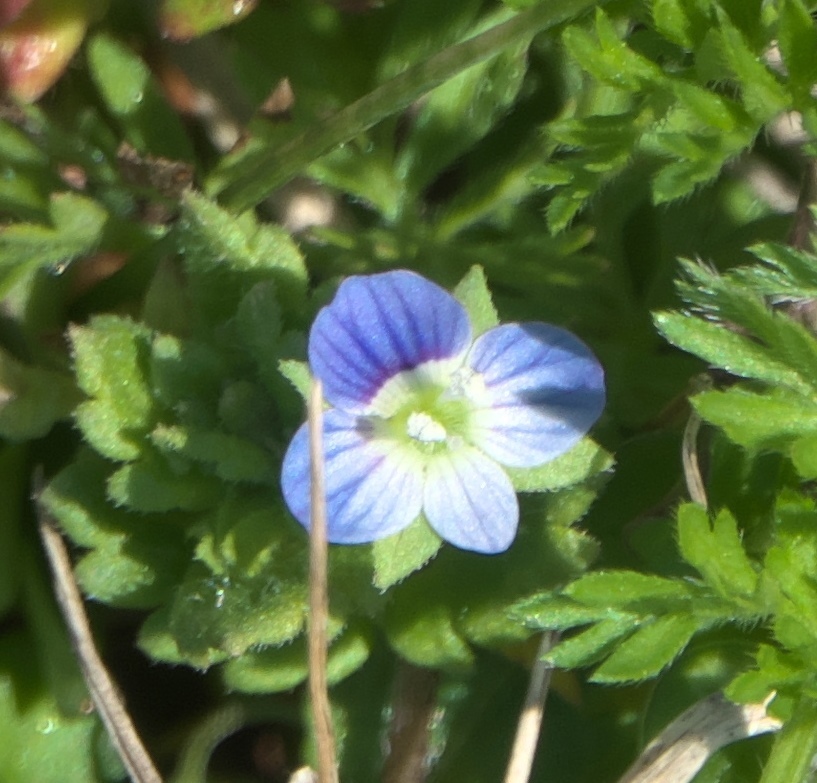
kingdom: Plantae
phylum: Tracheophyta
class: Magnoliopsida
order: Lamiales
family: Plantaginaceae
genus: Veronica
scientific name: Veronica persica
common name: Common field-speedwell
